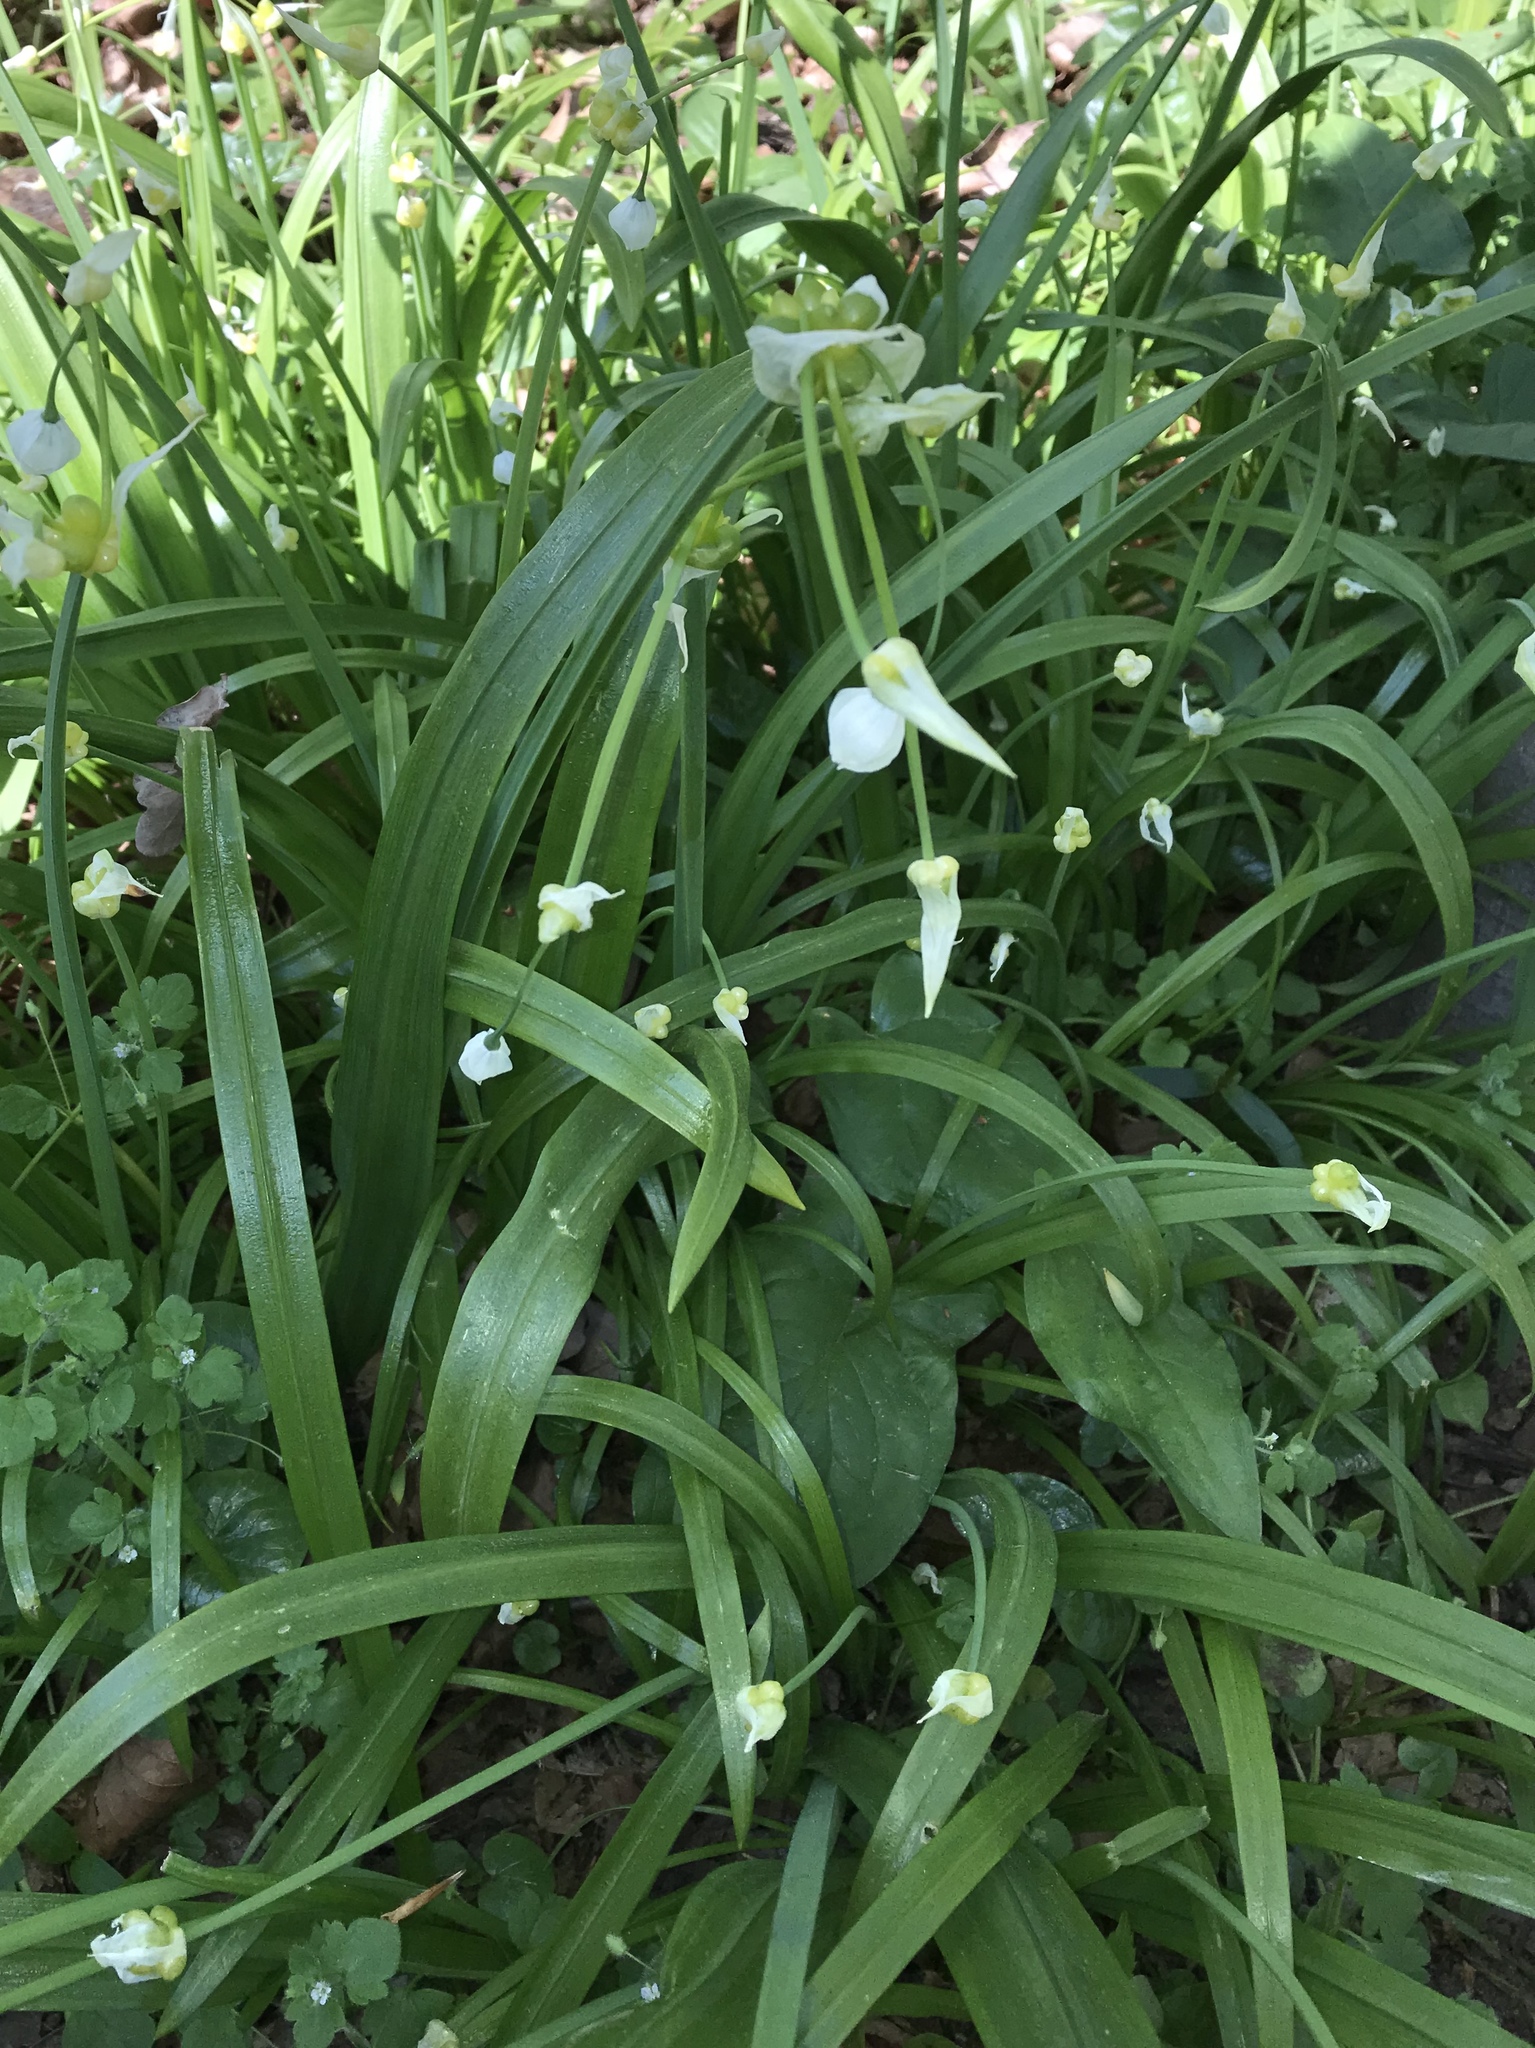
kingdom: Plantae
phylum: Tracheophyta
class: Liliopsida
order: Asparagales
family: Amaryllidaceae
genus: Allium
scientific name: Allium paradoxum
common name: Few-flowered garlic
